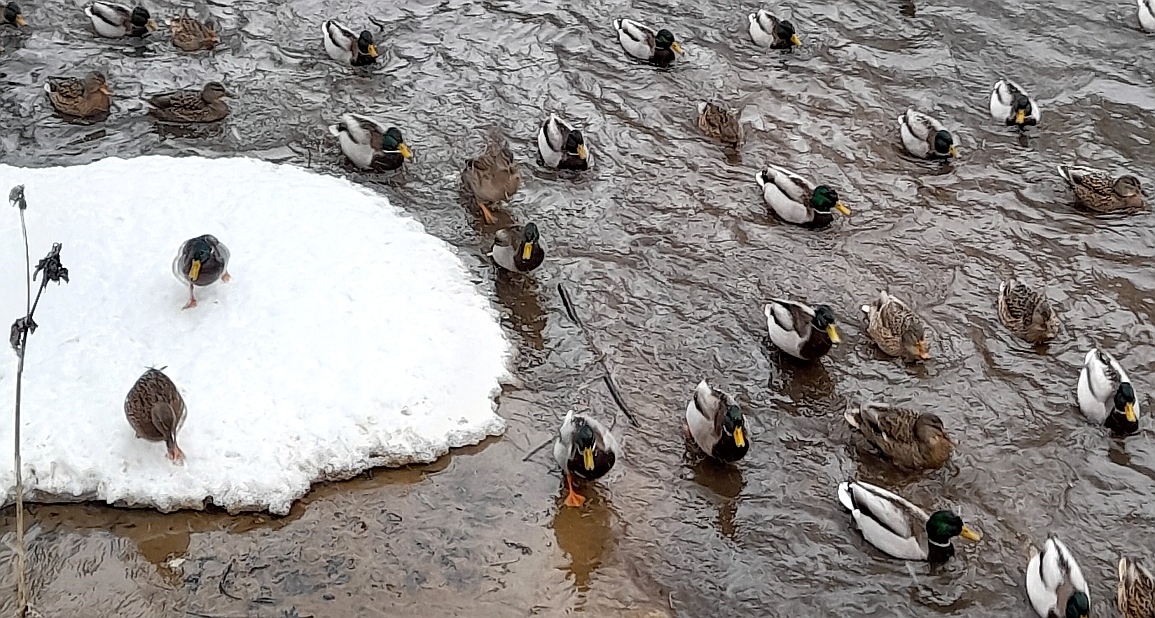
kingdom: Animalia
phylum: Chordata
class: Aves
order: Anseriformes
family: Anatidae
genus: Anas
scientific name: Anas platyrhynchos
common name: Mallard
